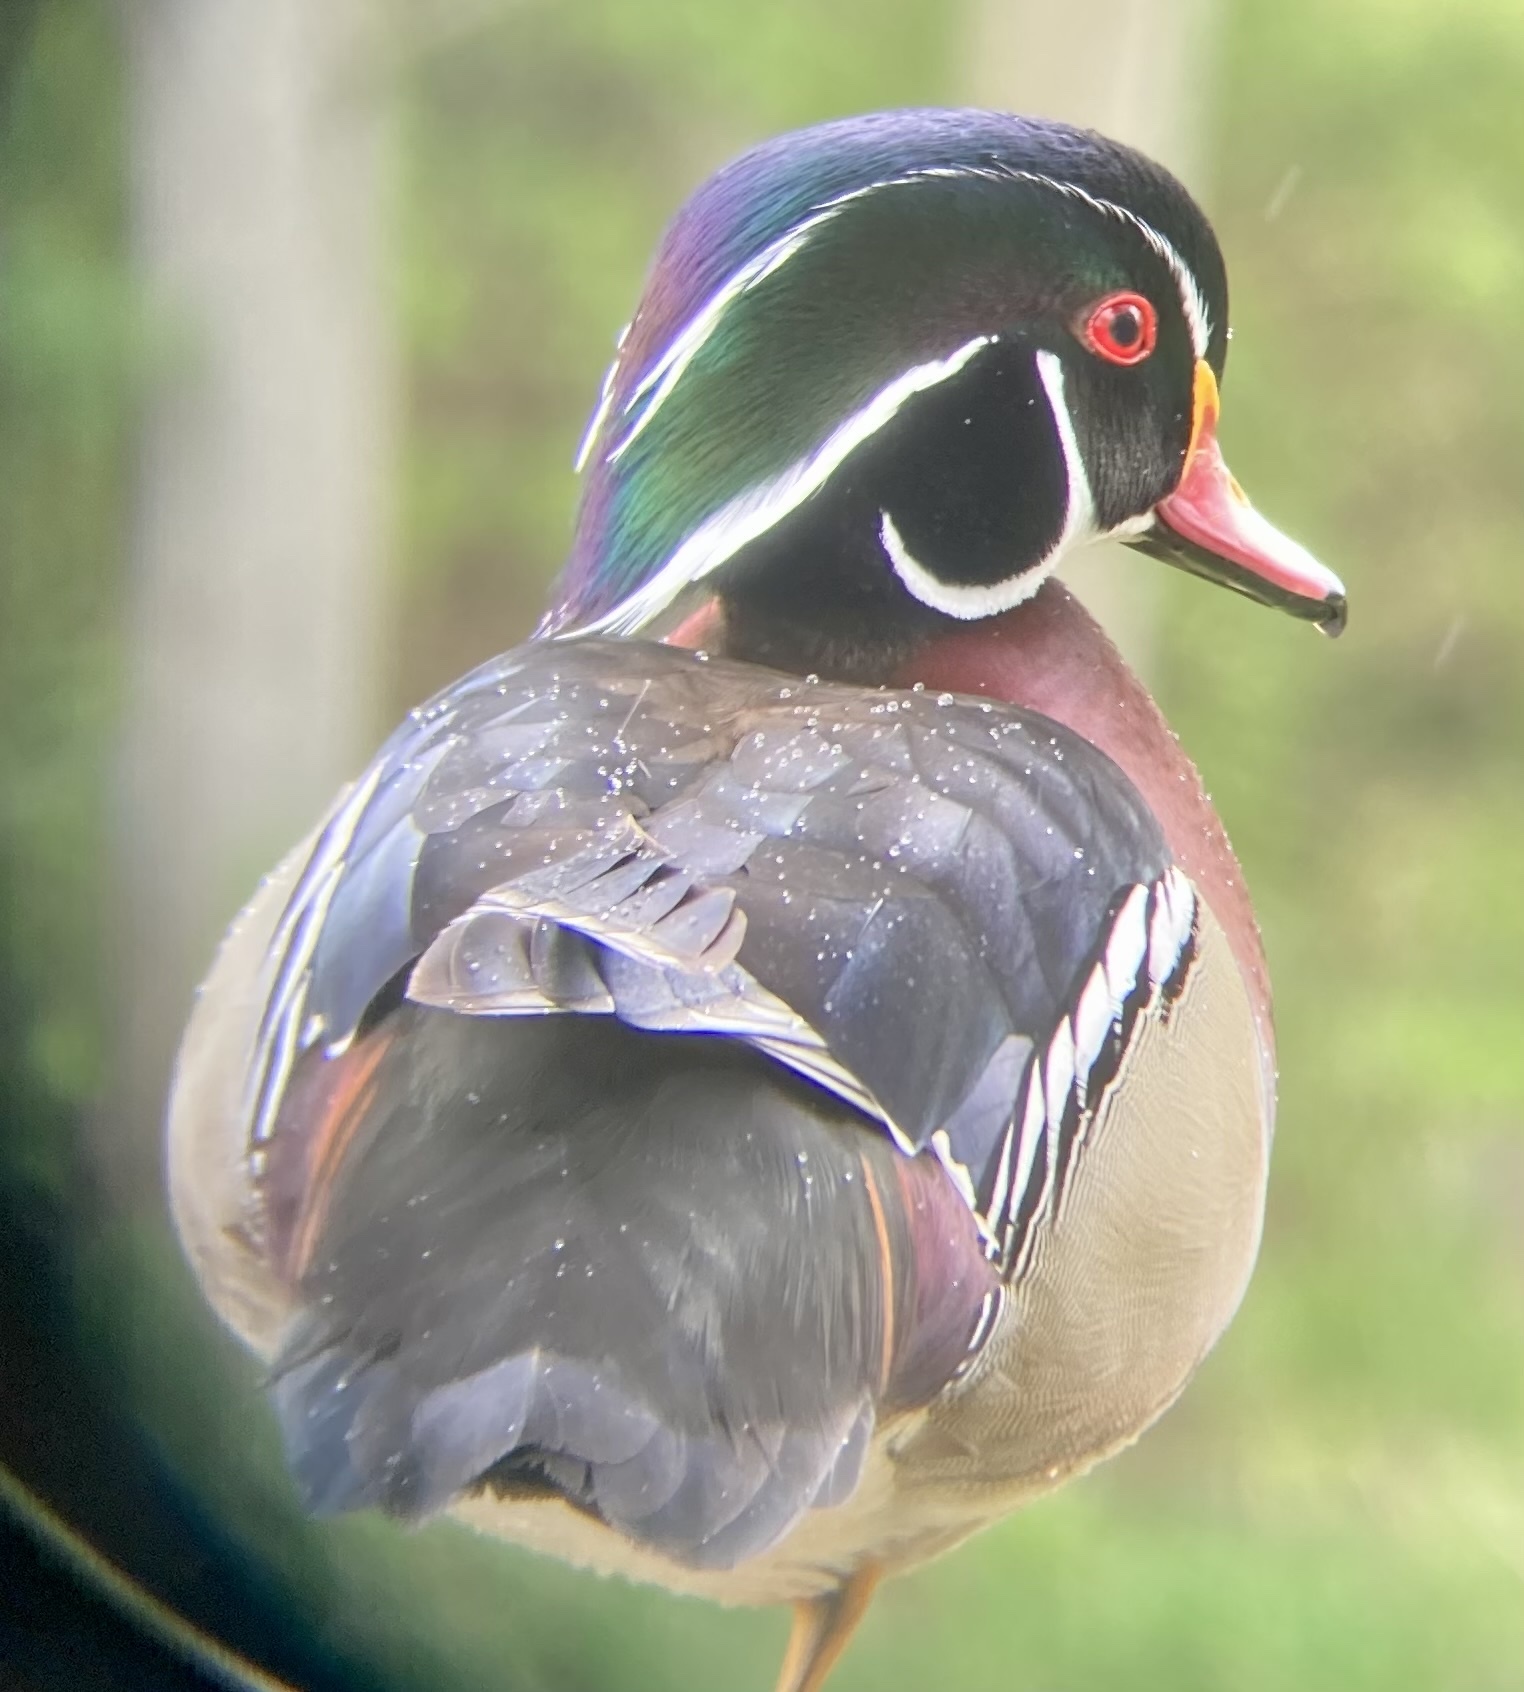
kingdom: Animalia
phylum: Chordata
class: Aves
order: Anseriformes
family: Anatidae
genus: Aix
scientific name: Aix sponsa
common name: Wood duck
